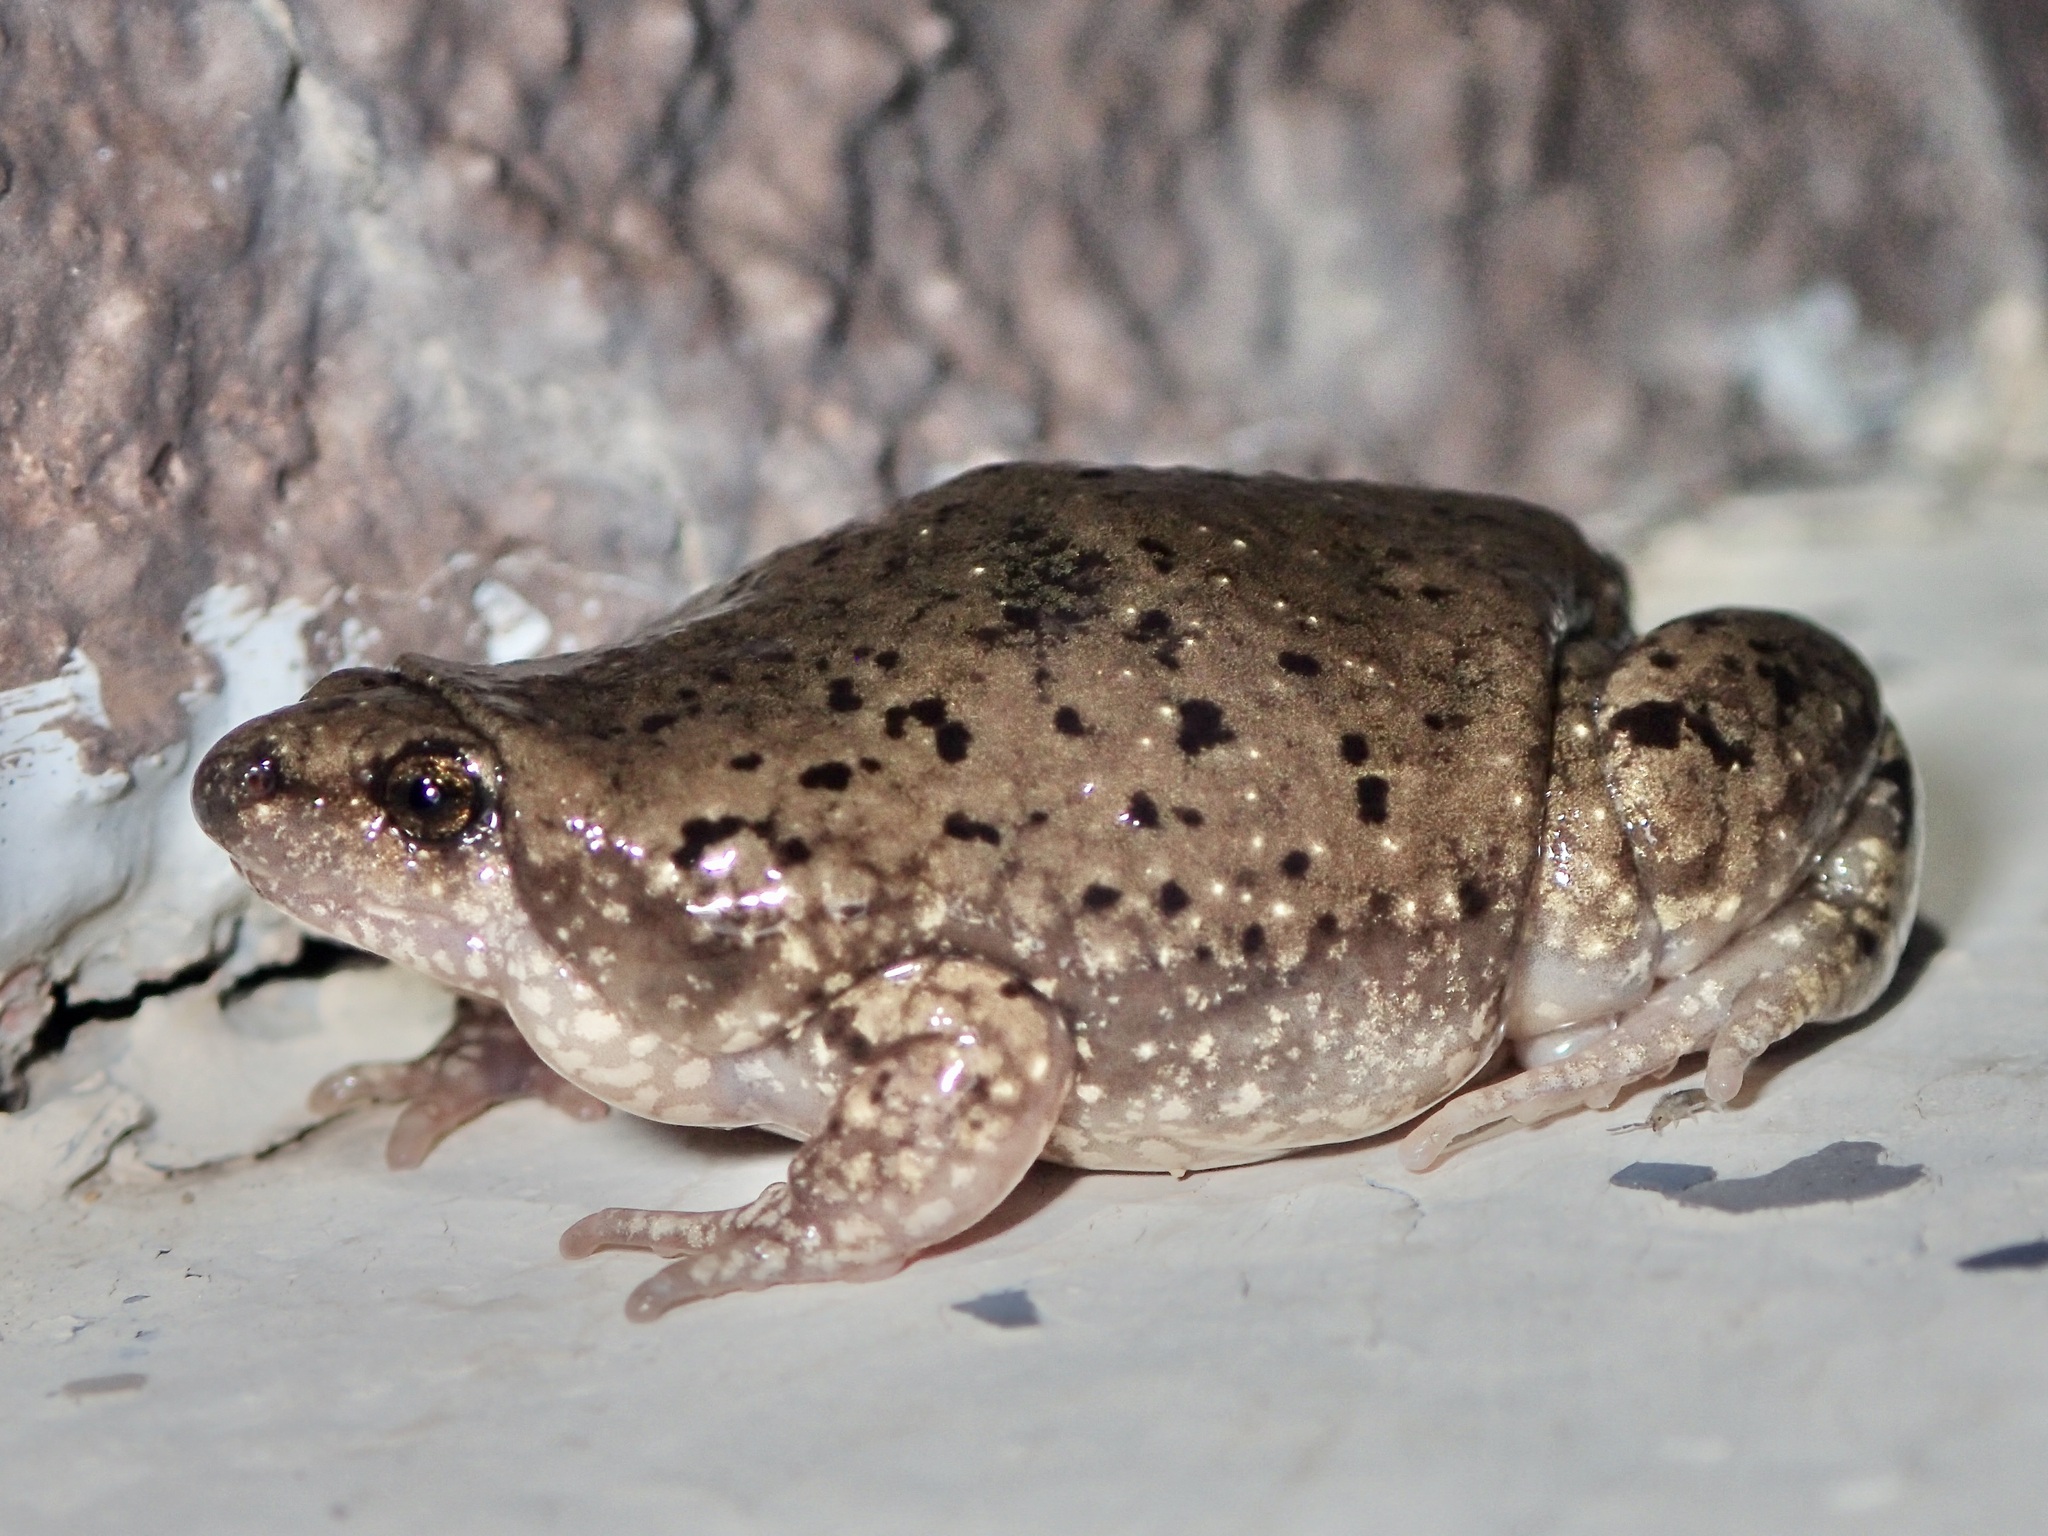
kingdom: Animalia
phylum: Chordata
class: Amphibia
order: Anura
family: Microhylidae
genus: Gastrophryne
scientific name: Gastrophryne mazatlanensis
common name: Sinaloan narrow-mouthed toad
